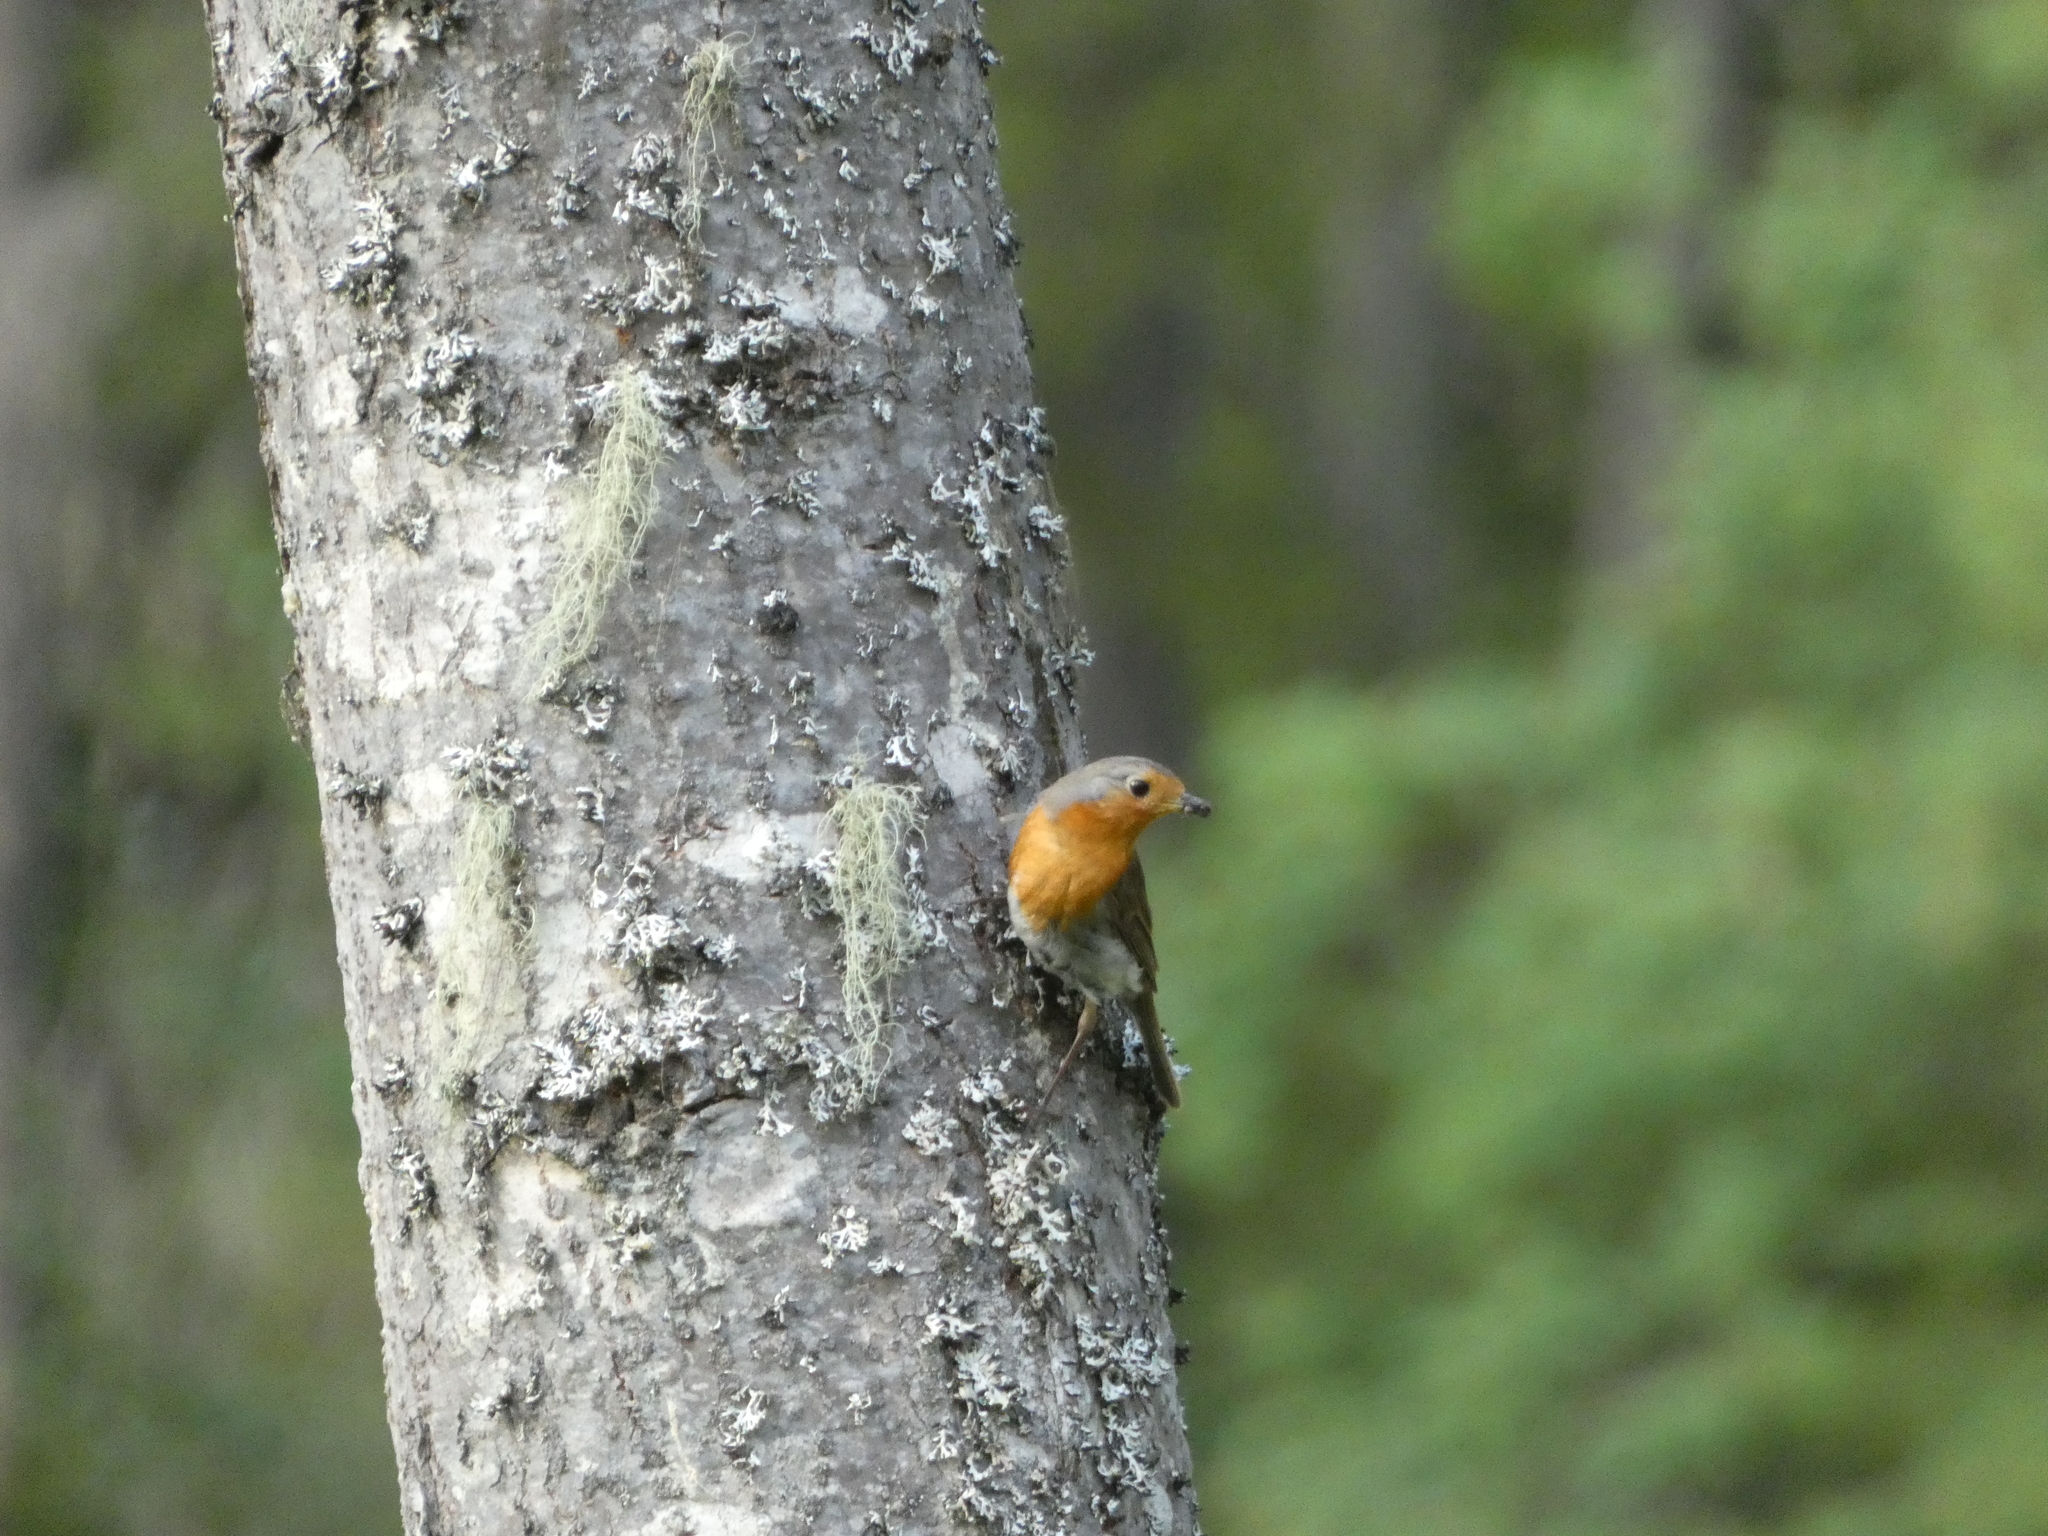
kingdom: Animalia
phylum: Chordata
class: Aves
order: Passeriformes
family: Muscicapidae
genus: Erithacus
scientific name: Erithacus rubecula
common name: European robin
